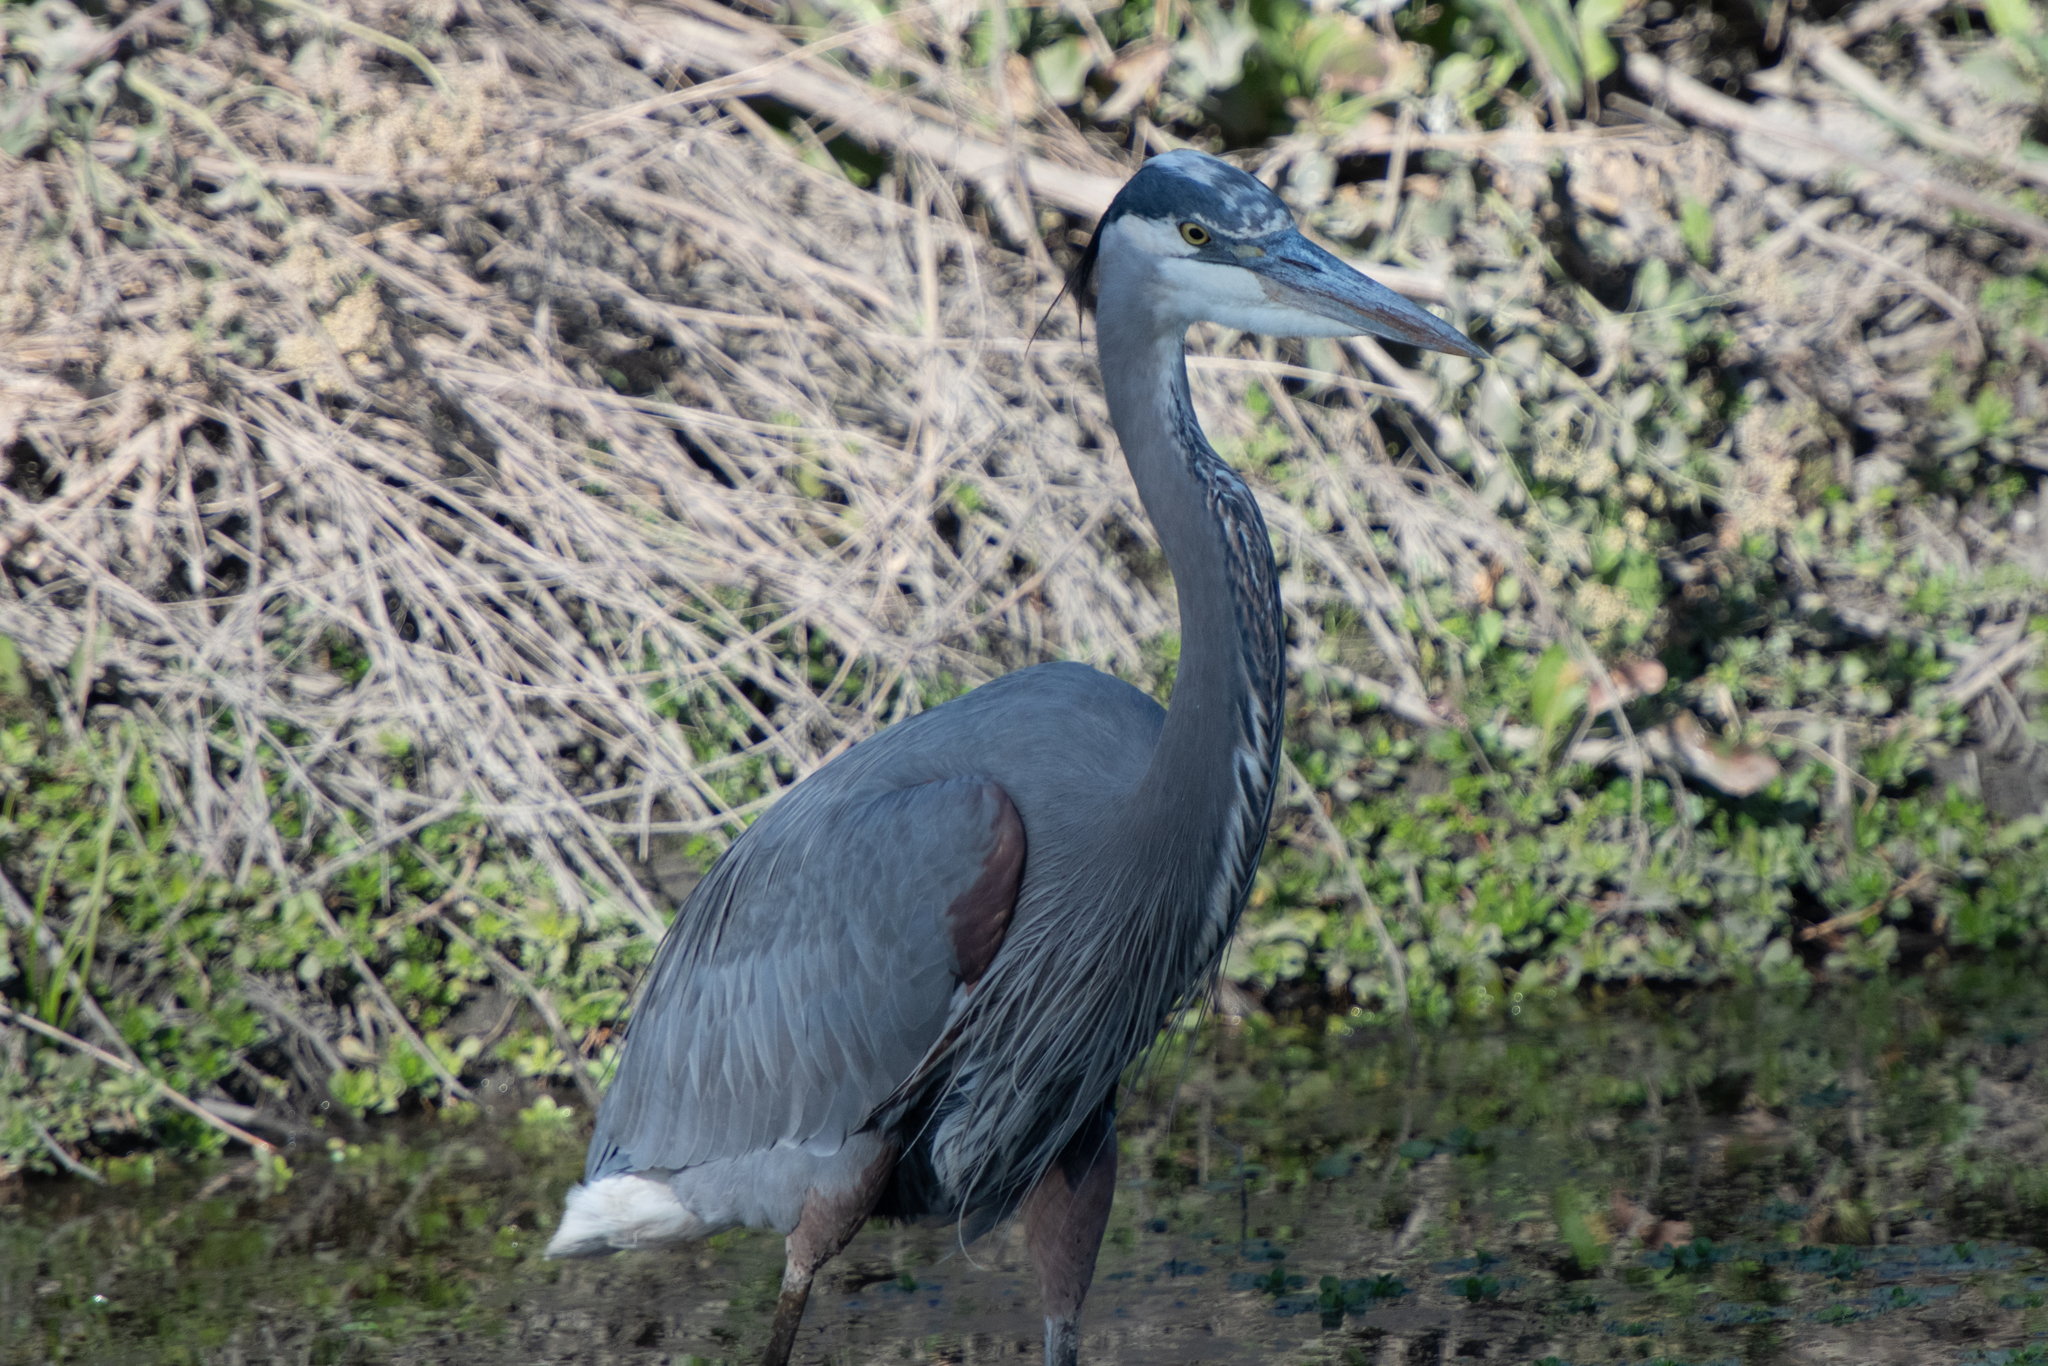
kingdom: Animalia
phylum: Chordata
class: Aves
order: Pelecaniformes
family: Ardeidae
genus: Ardea
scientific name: Ardea herodias
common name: Great blue heron
